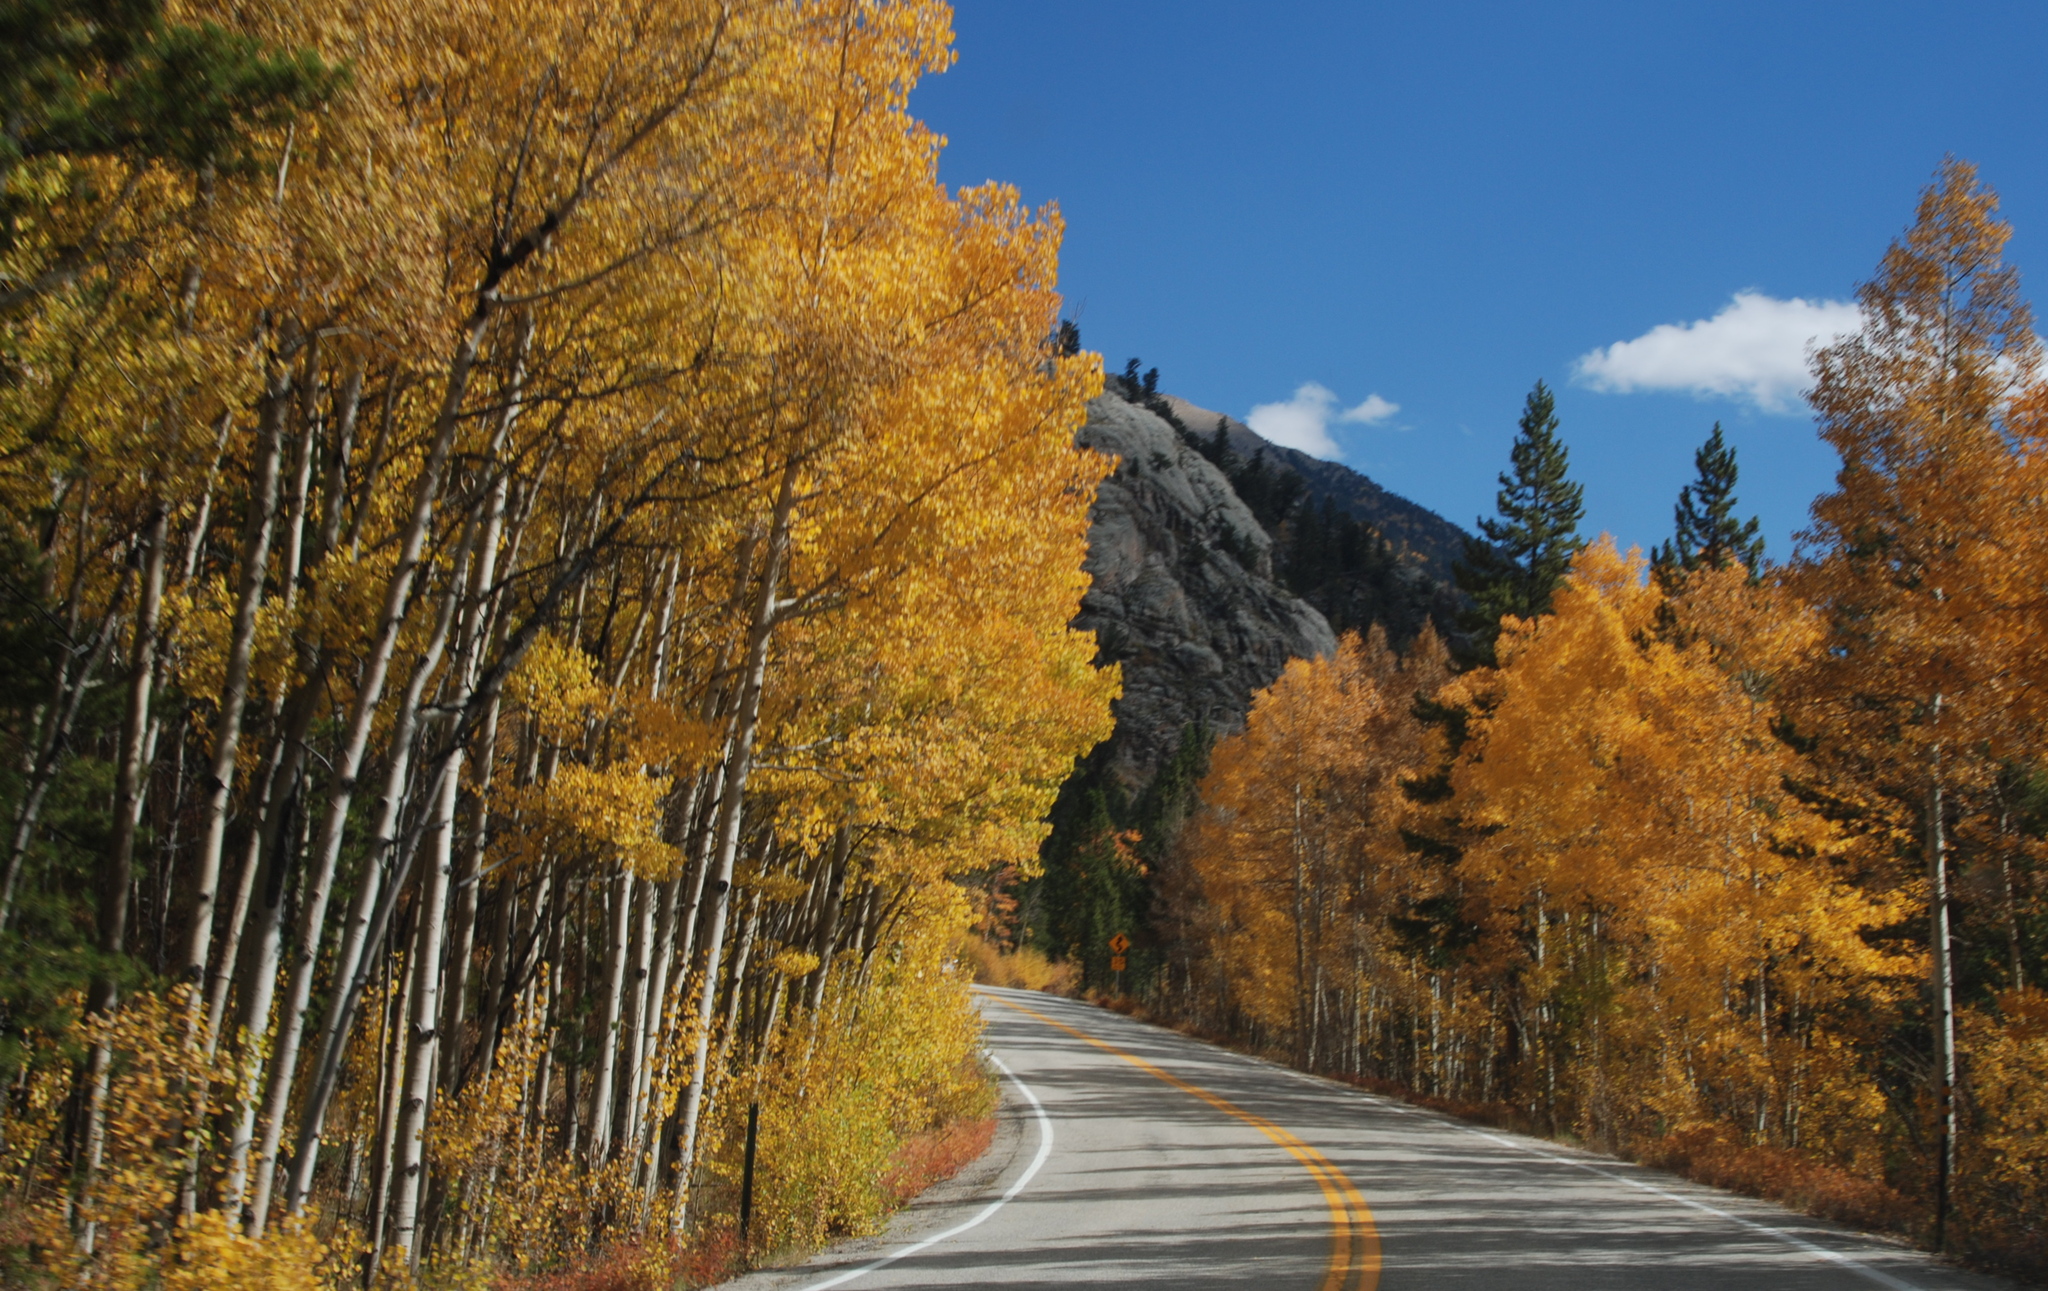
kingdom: Plantae
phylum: Tracheophyta
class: Magnoliopsida
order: Malpighiales
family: Salicaceae
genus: Populus
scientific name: Populus tremuloides
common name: Quaking aspen
